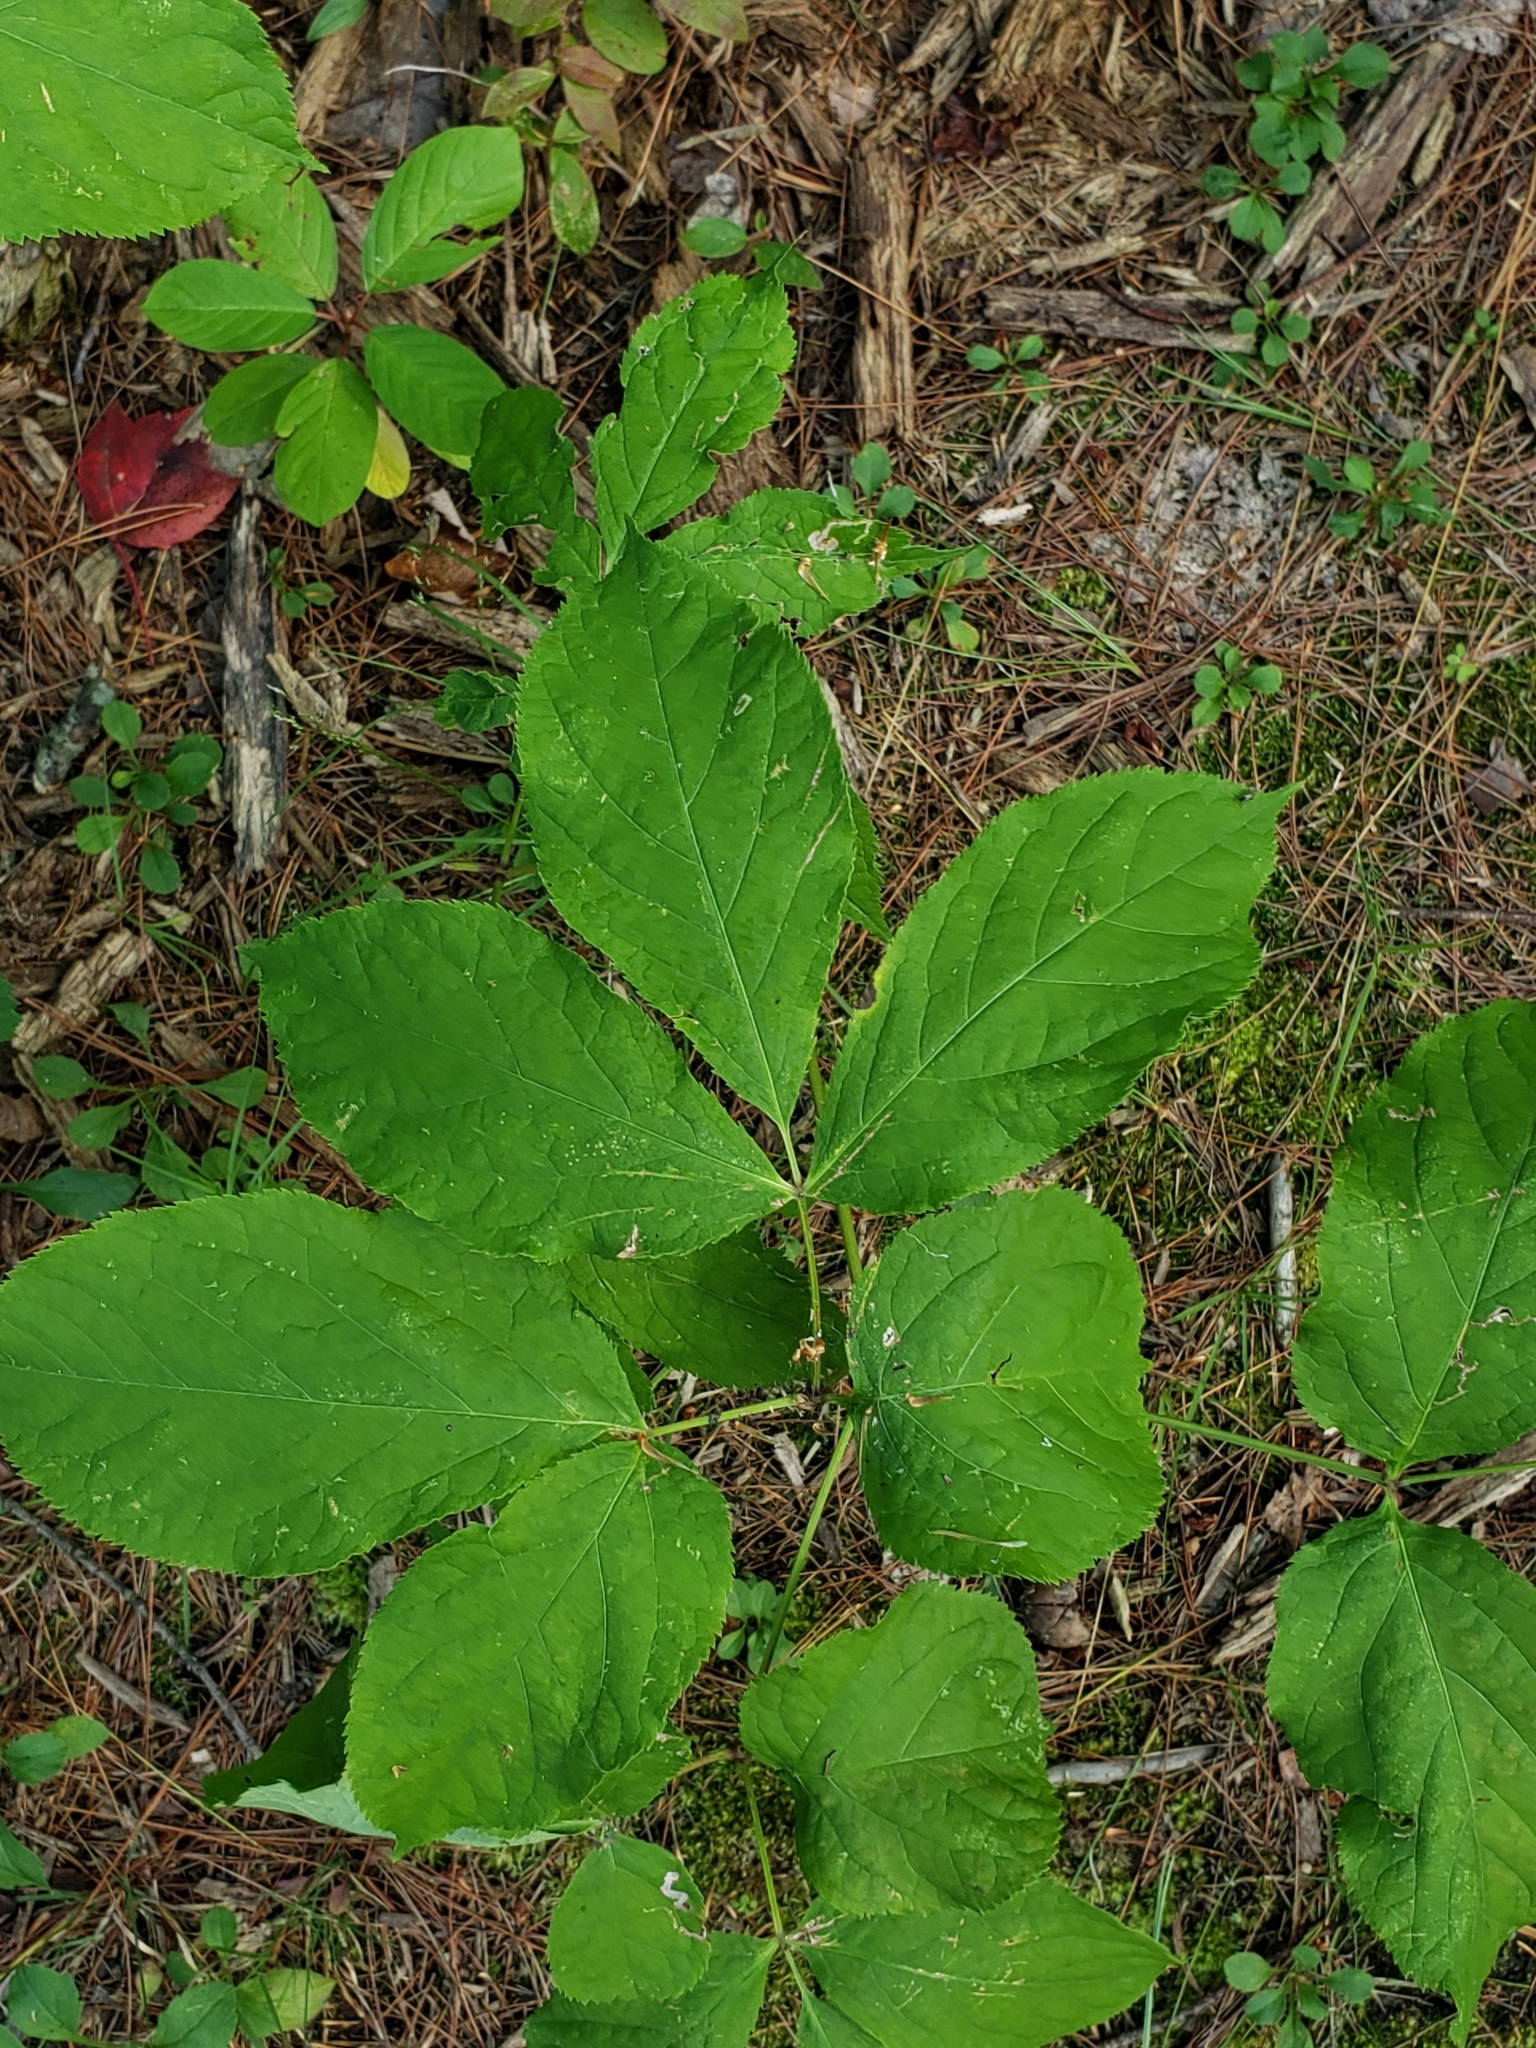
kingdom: Plantae
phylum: Tracheophyta
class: Magnoliopsida
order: Apiales
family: Araliaceae
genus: Aralia
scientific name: Aralia nudicaulis
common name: Wild sarsaparilla
